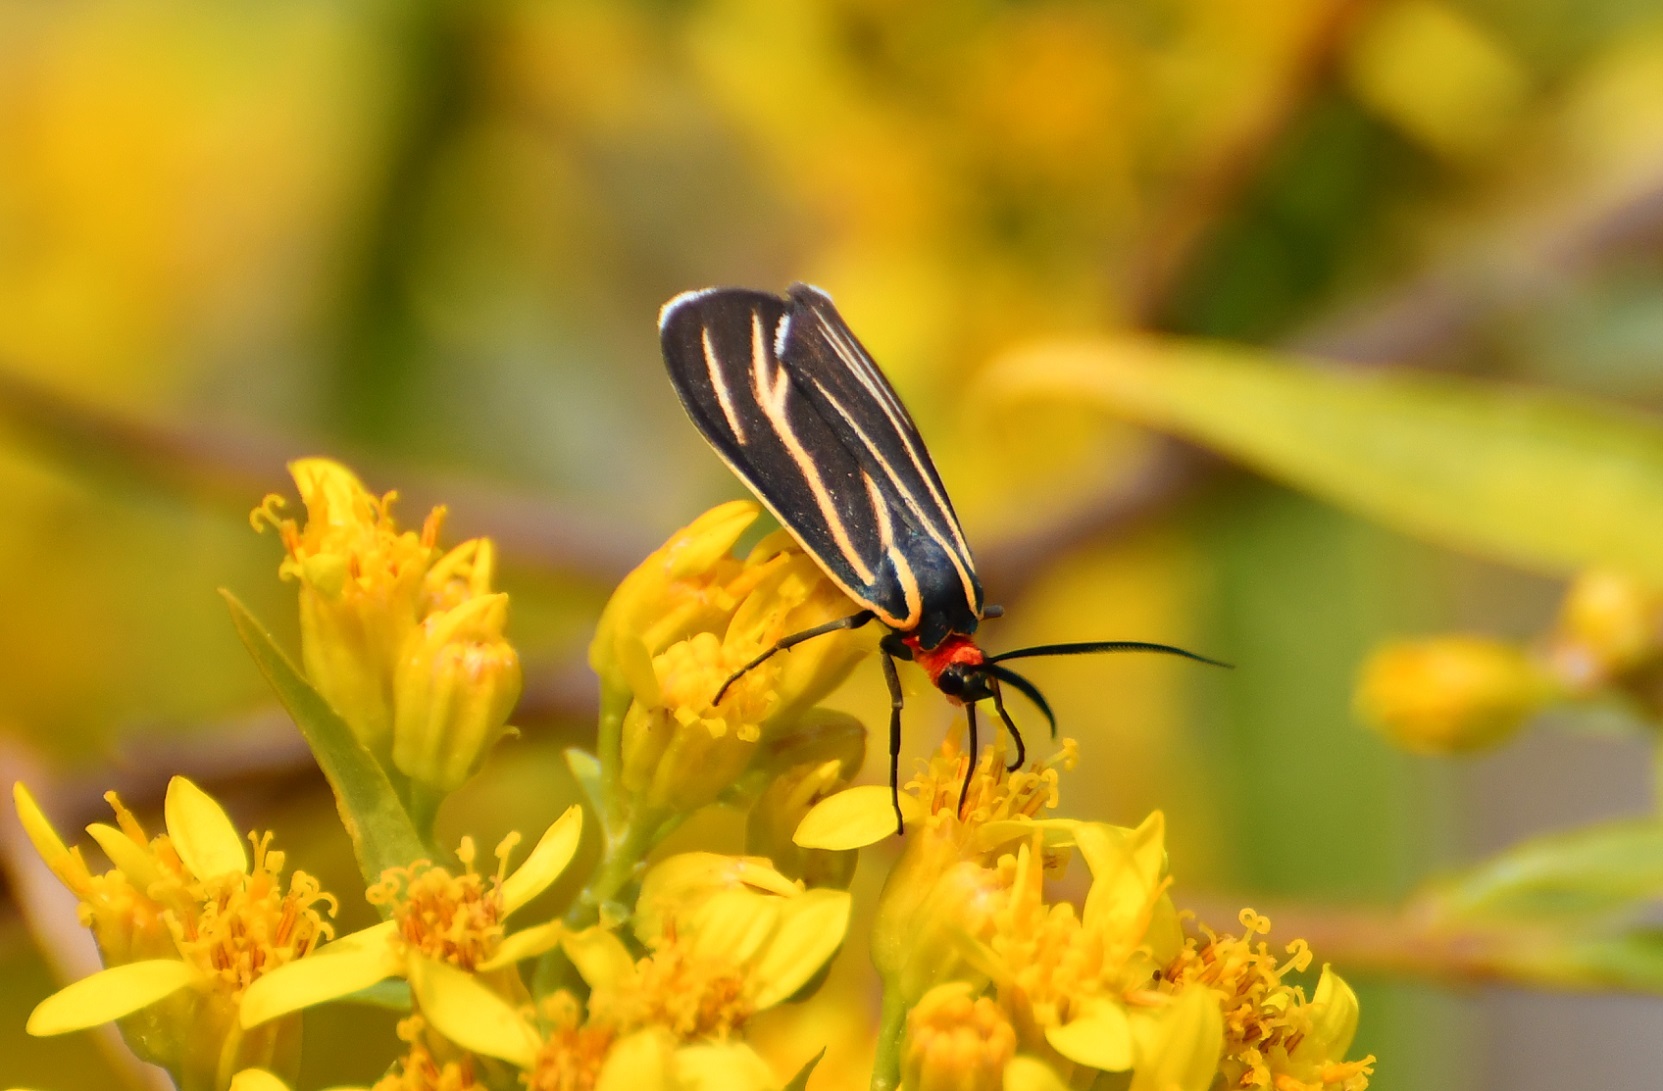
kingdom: Animalia
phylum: Arthropoda
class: Insecta
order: Lepidoptera
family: Erebidae
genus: Ctenucha
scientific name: Ctenucha venosa
